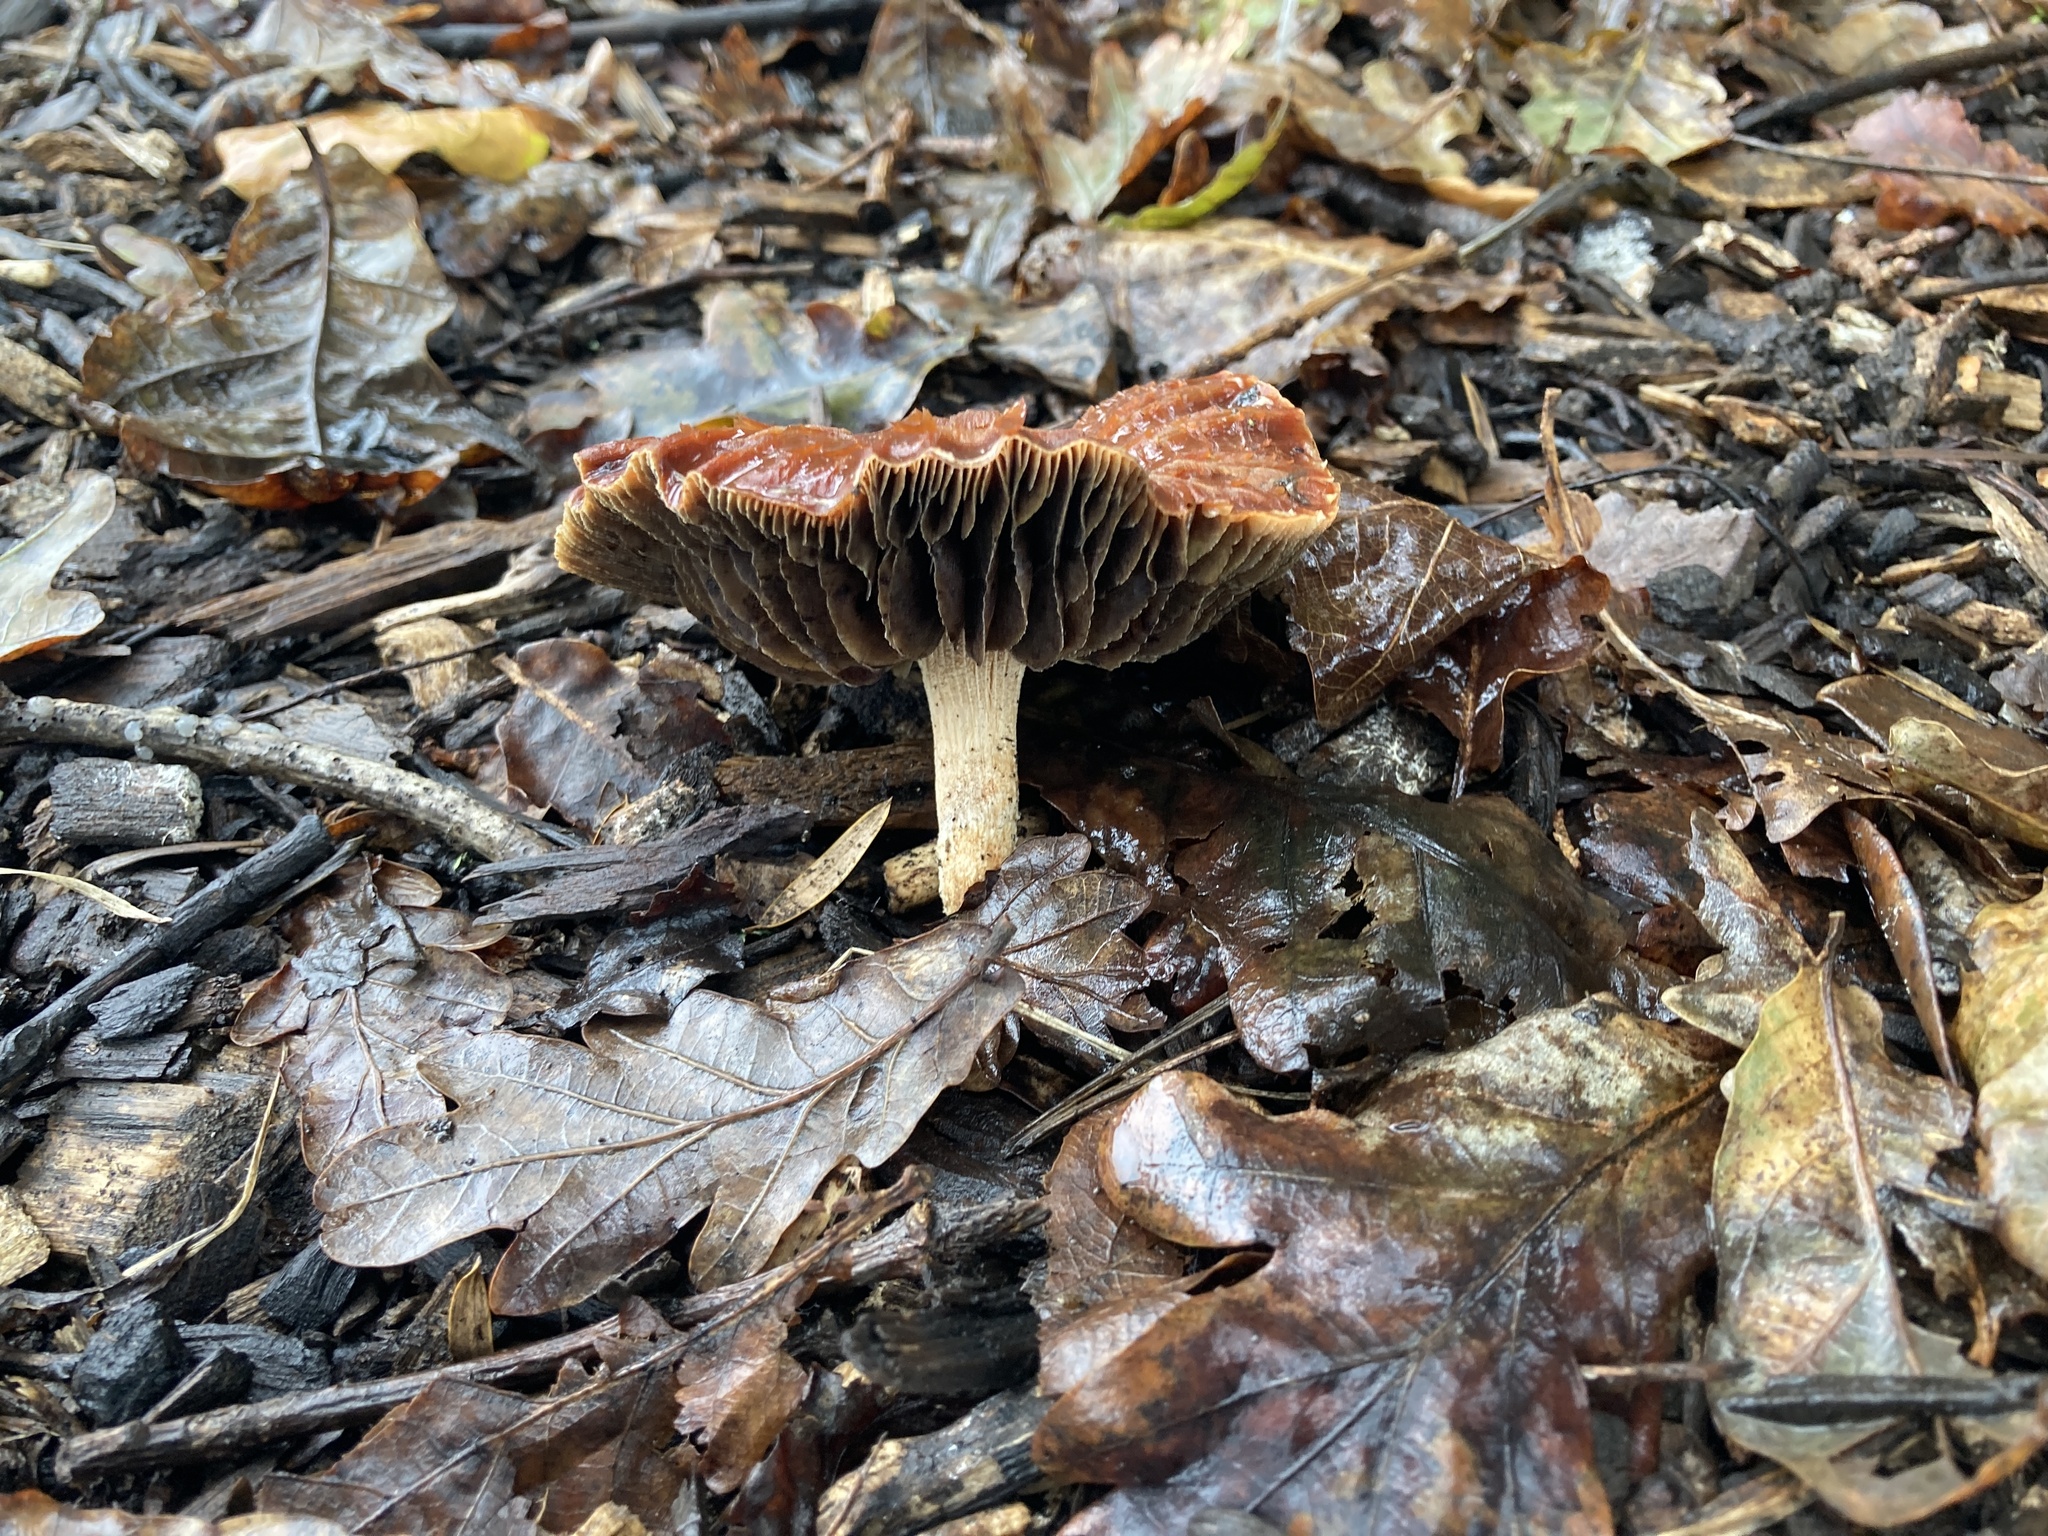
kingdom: Fungi
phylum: Basidiomycota
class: Agaricomycetes
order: Agaricales
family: Strophariaceae
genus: Leratiomyces
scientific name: Leratiomyces ceres
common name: Redlead roundhead
